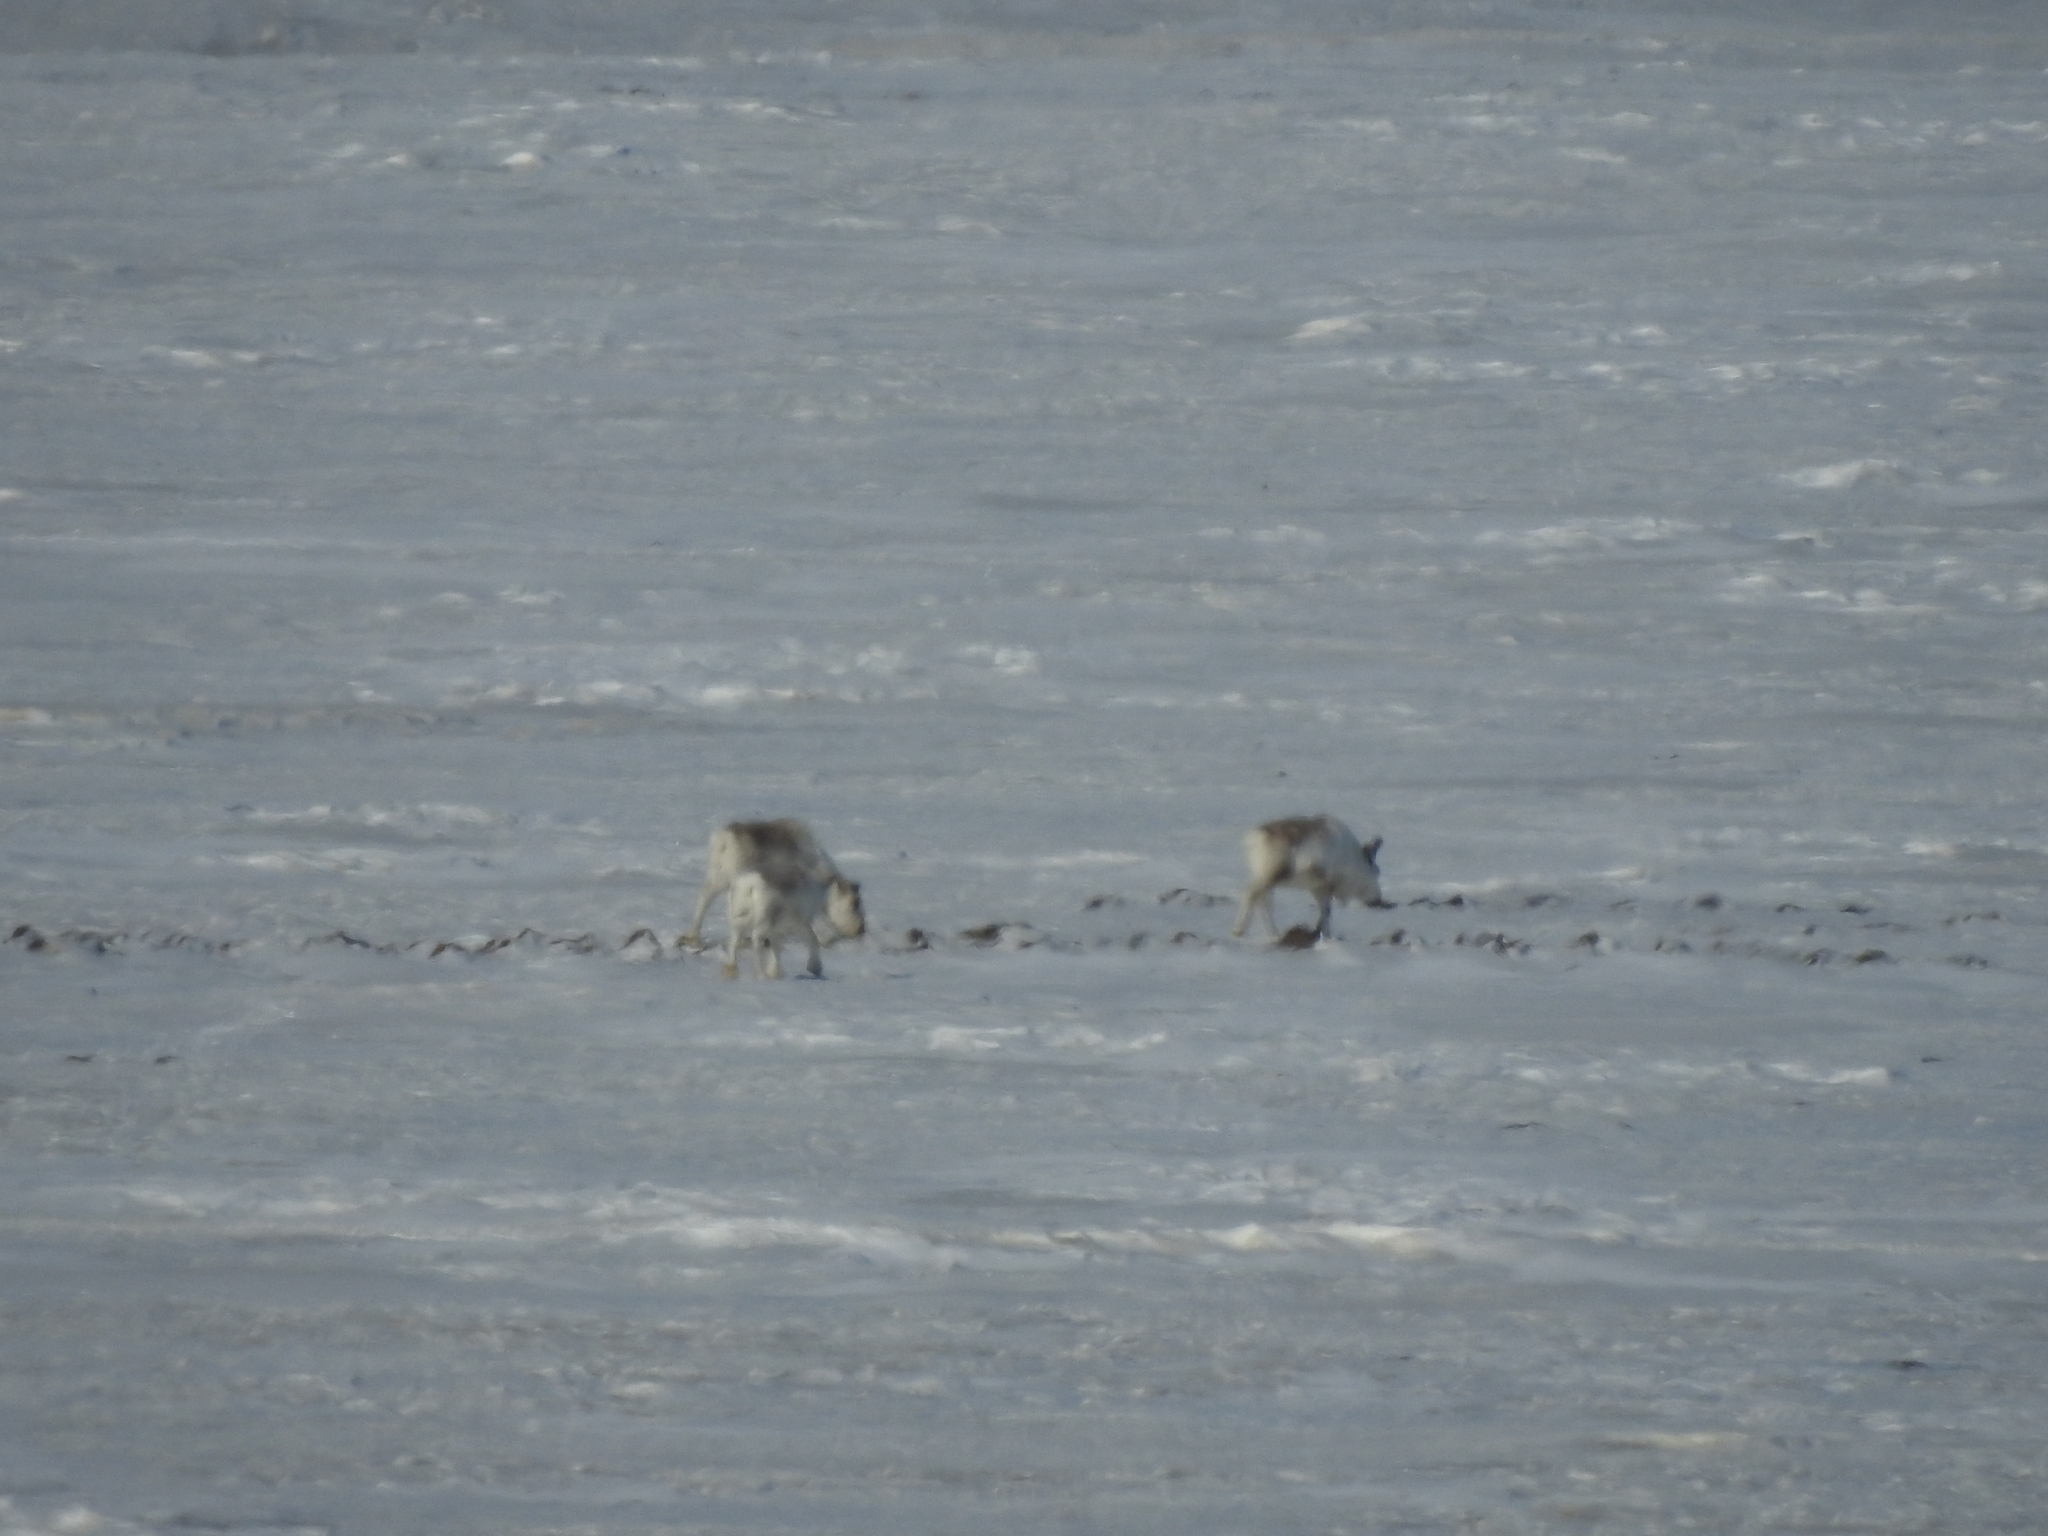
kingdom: Animalia
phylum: Chordata
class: Mammalia
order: Artiodactyla
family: Cervidae
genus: Rangifer
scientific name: Rangifer tarandus
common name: Reindeer
